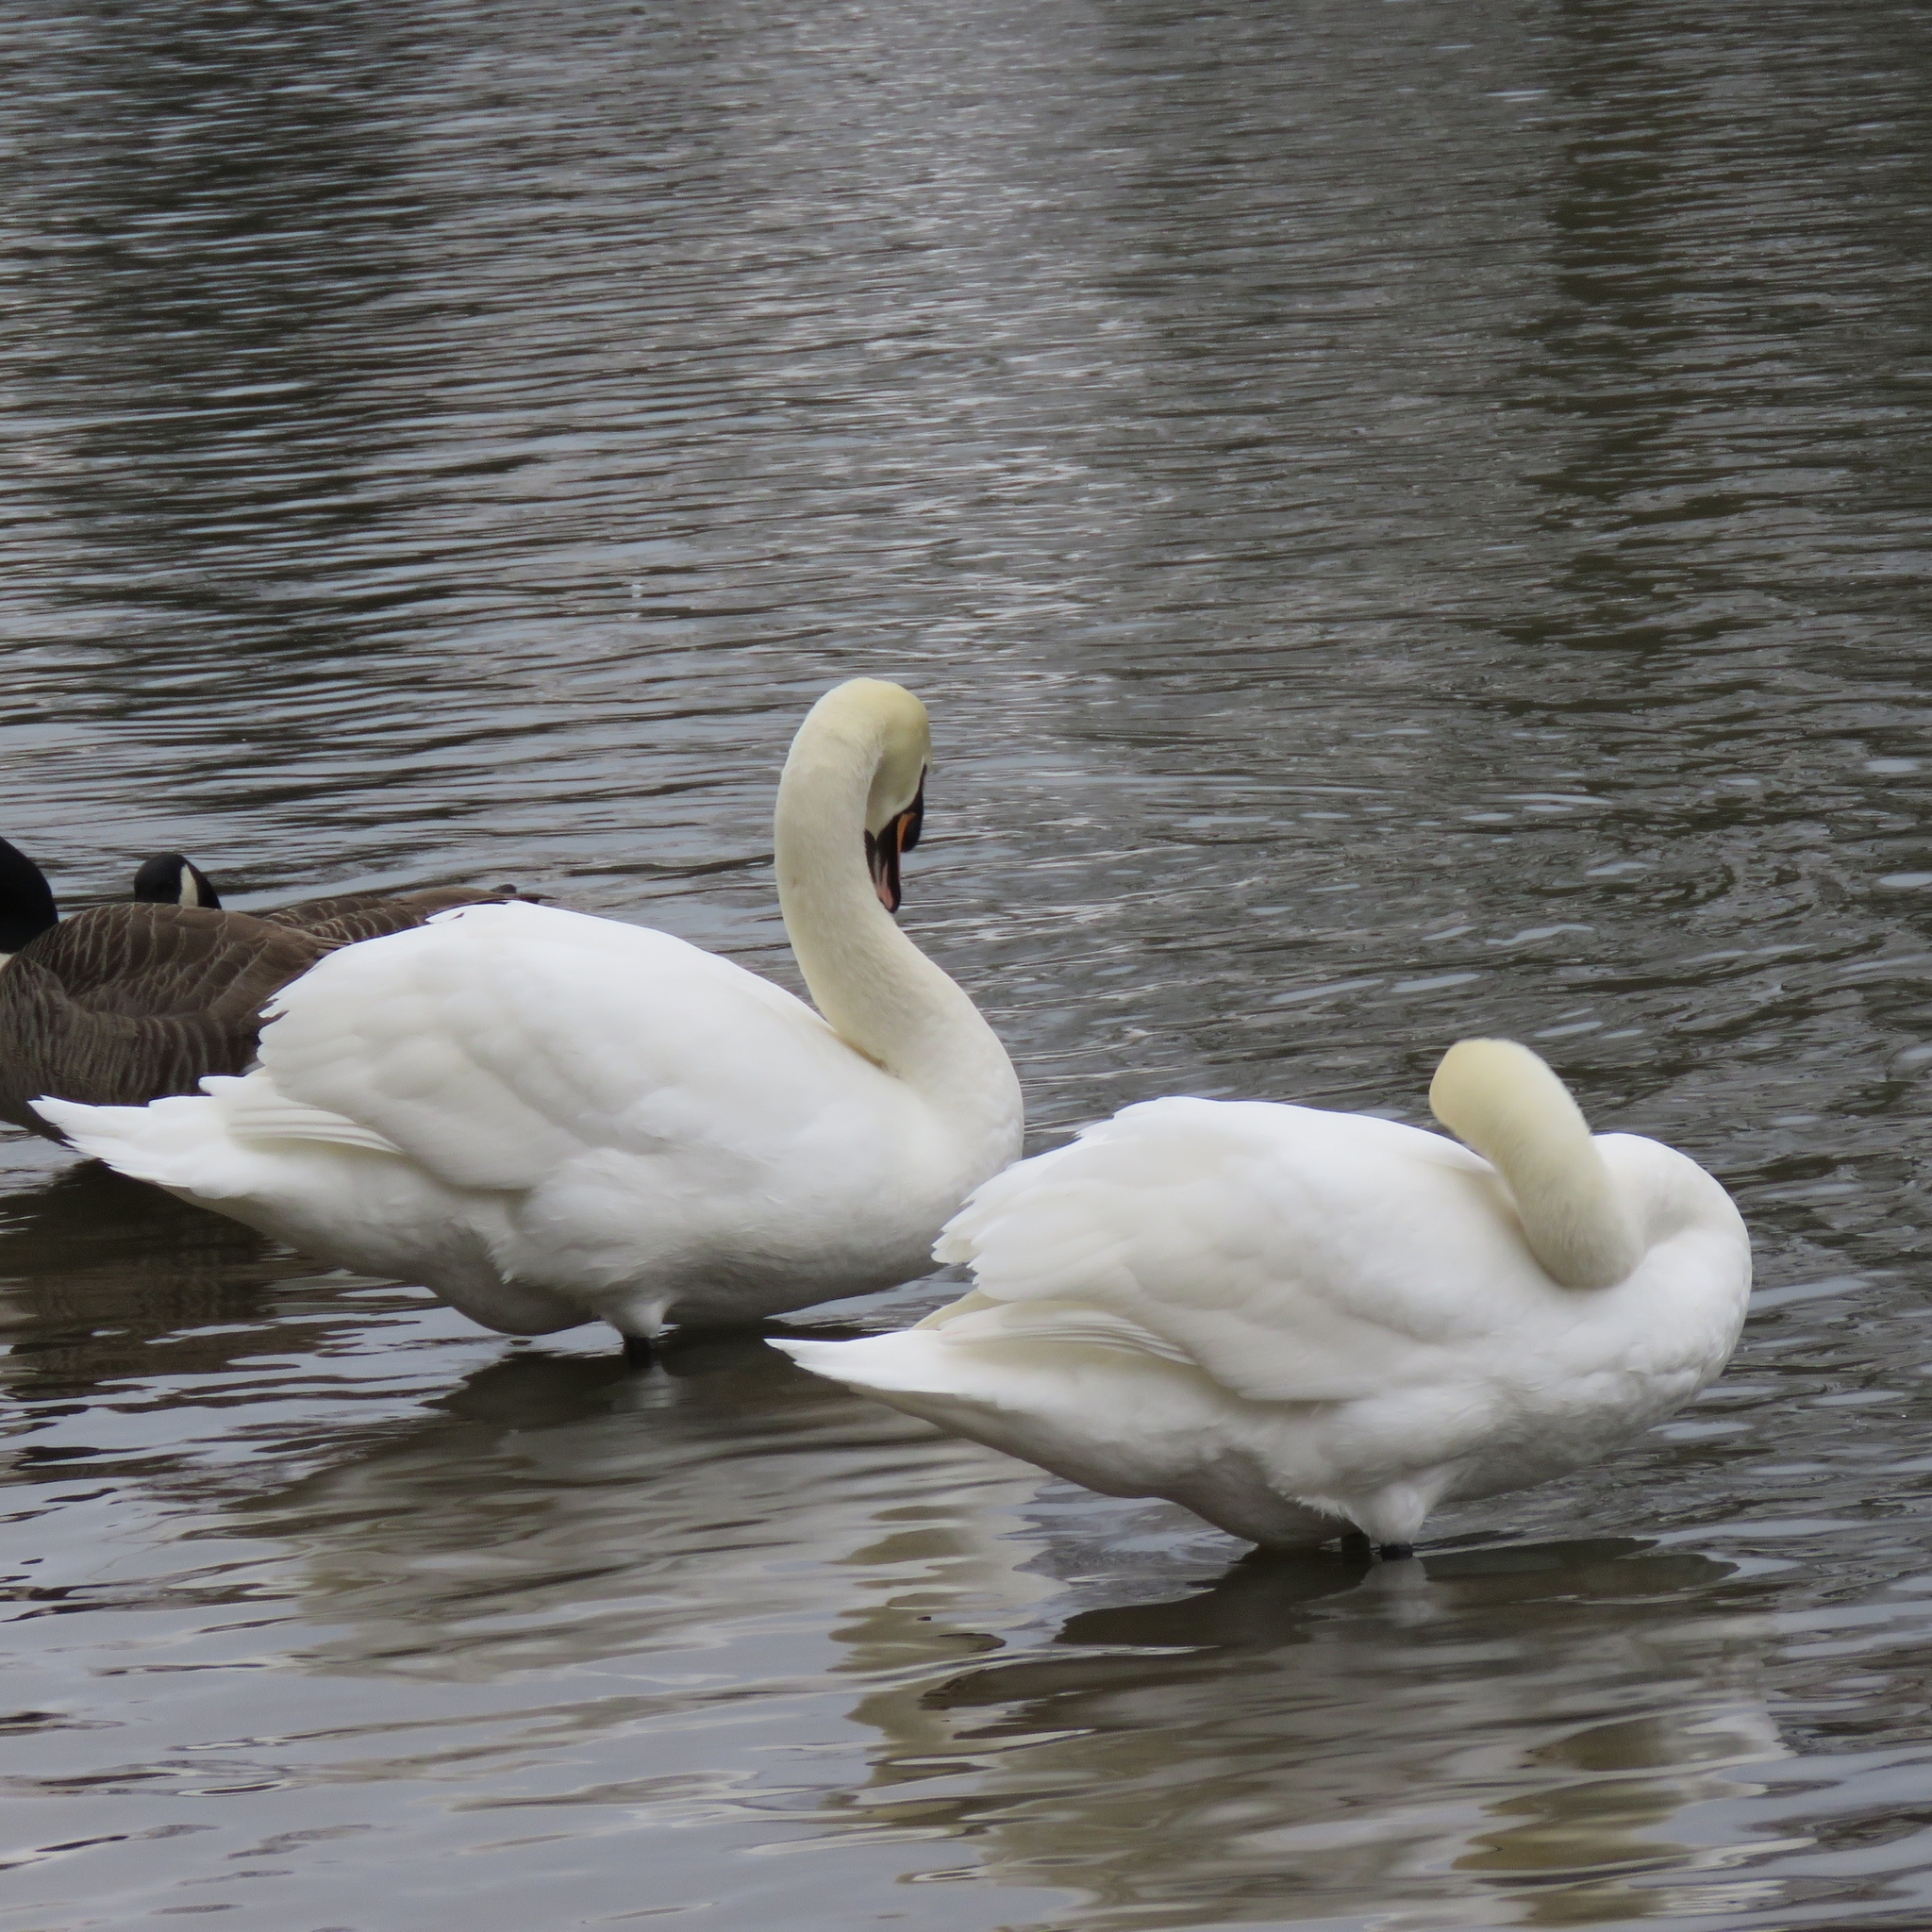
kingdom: Animalia
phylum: Chordata
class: Aves
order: Anseriformes
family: Anatidae
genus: Cygnus
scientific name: Cygnus olor
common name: Mute swan
